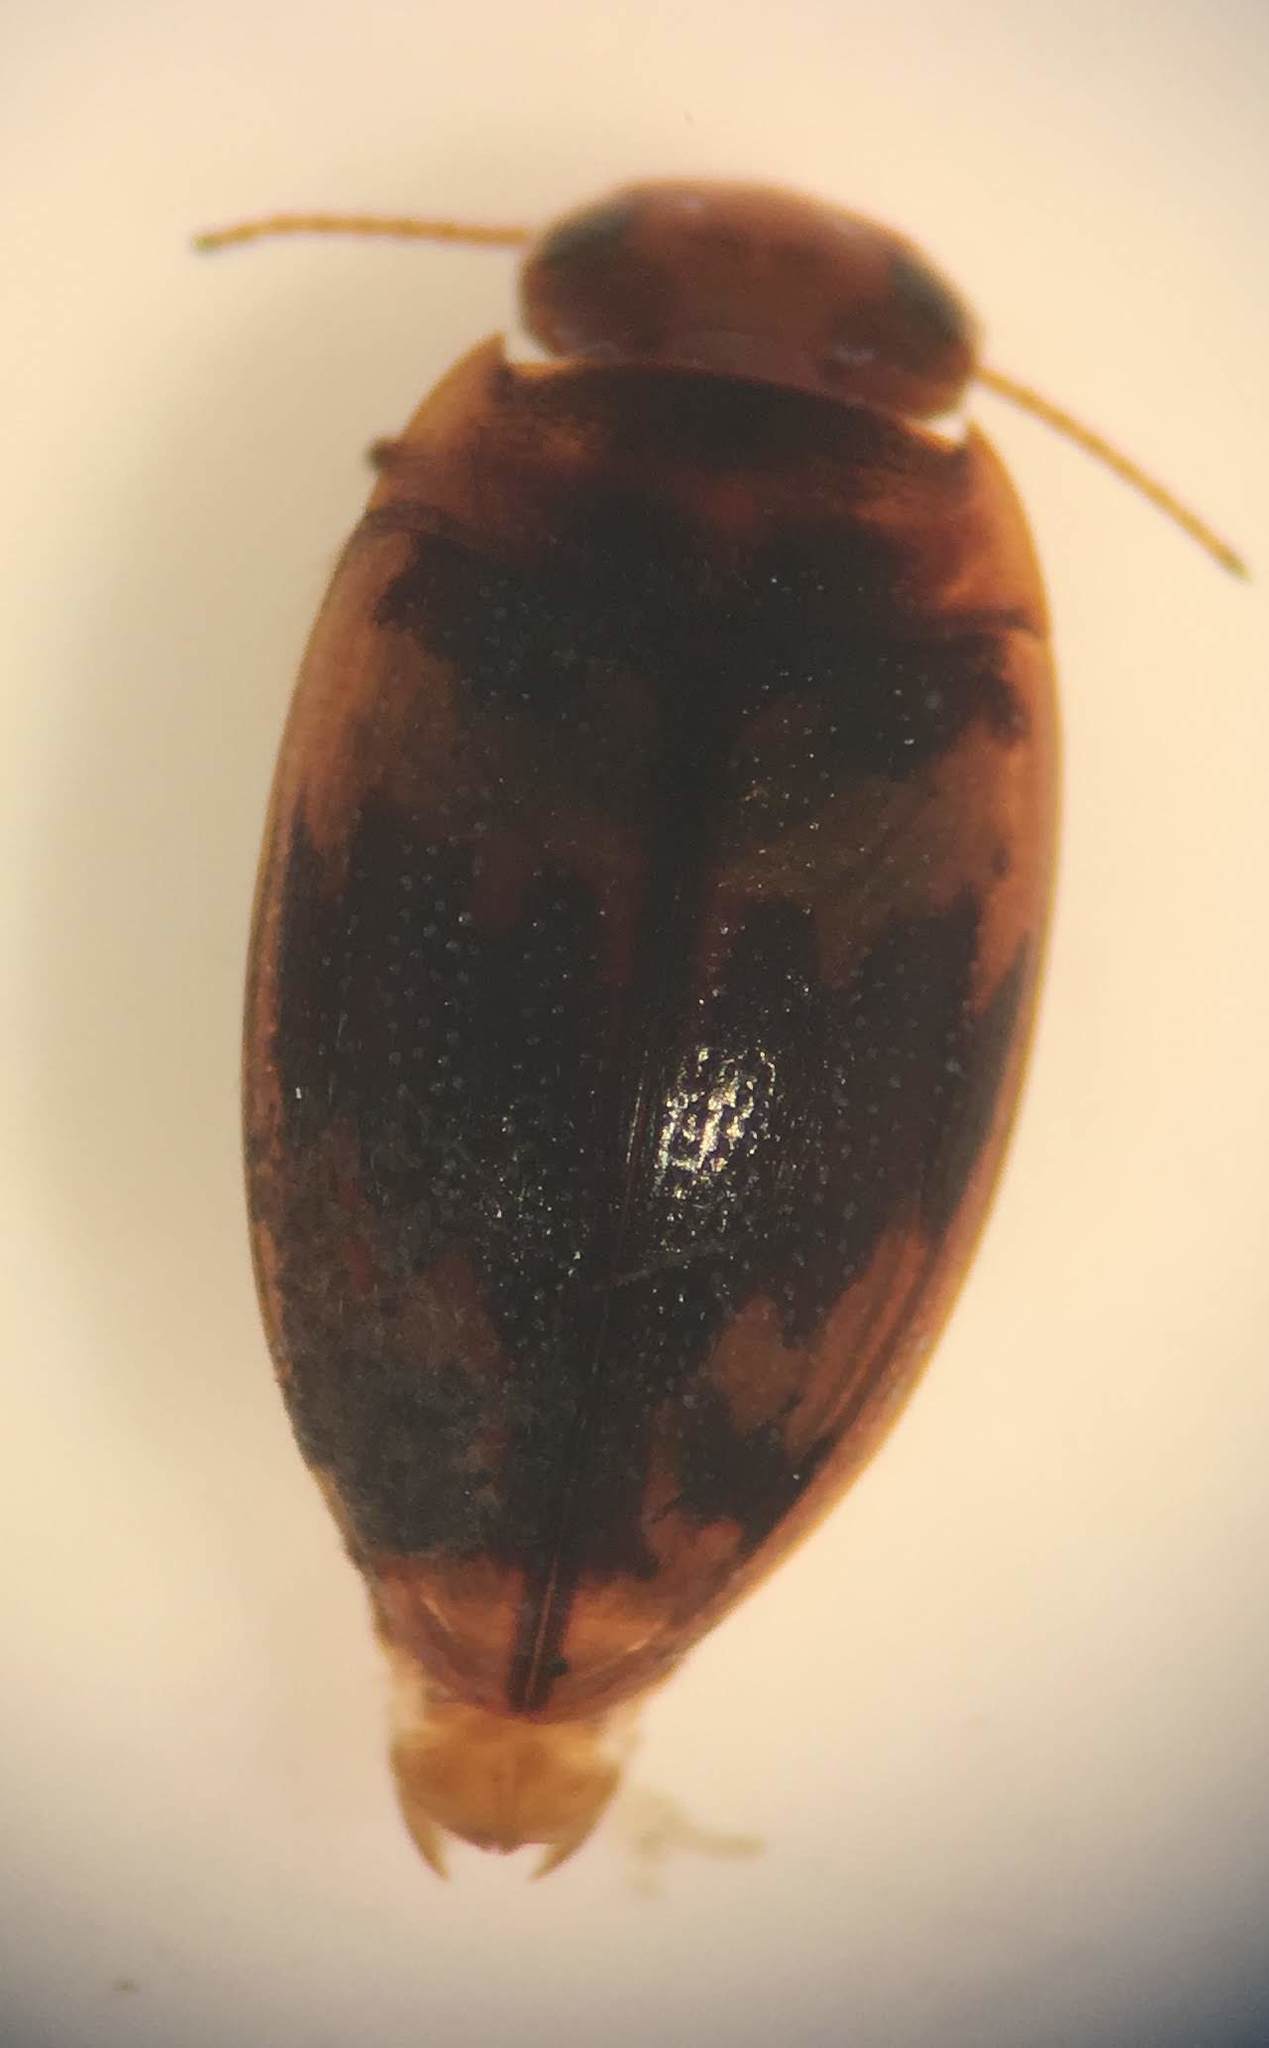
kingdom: Animalia
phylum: Arthropoda
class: Insecta
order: Coleoptera
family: Dytiscidae
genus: Neoporus
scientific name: Neoporus striatopunctatus
